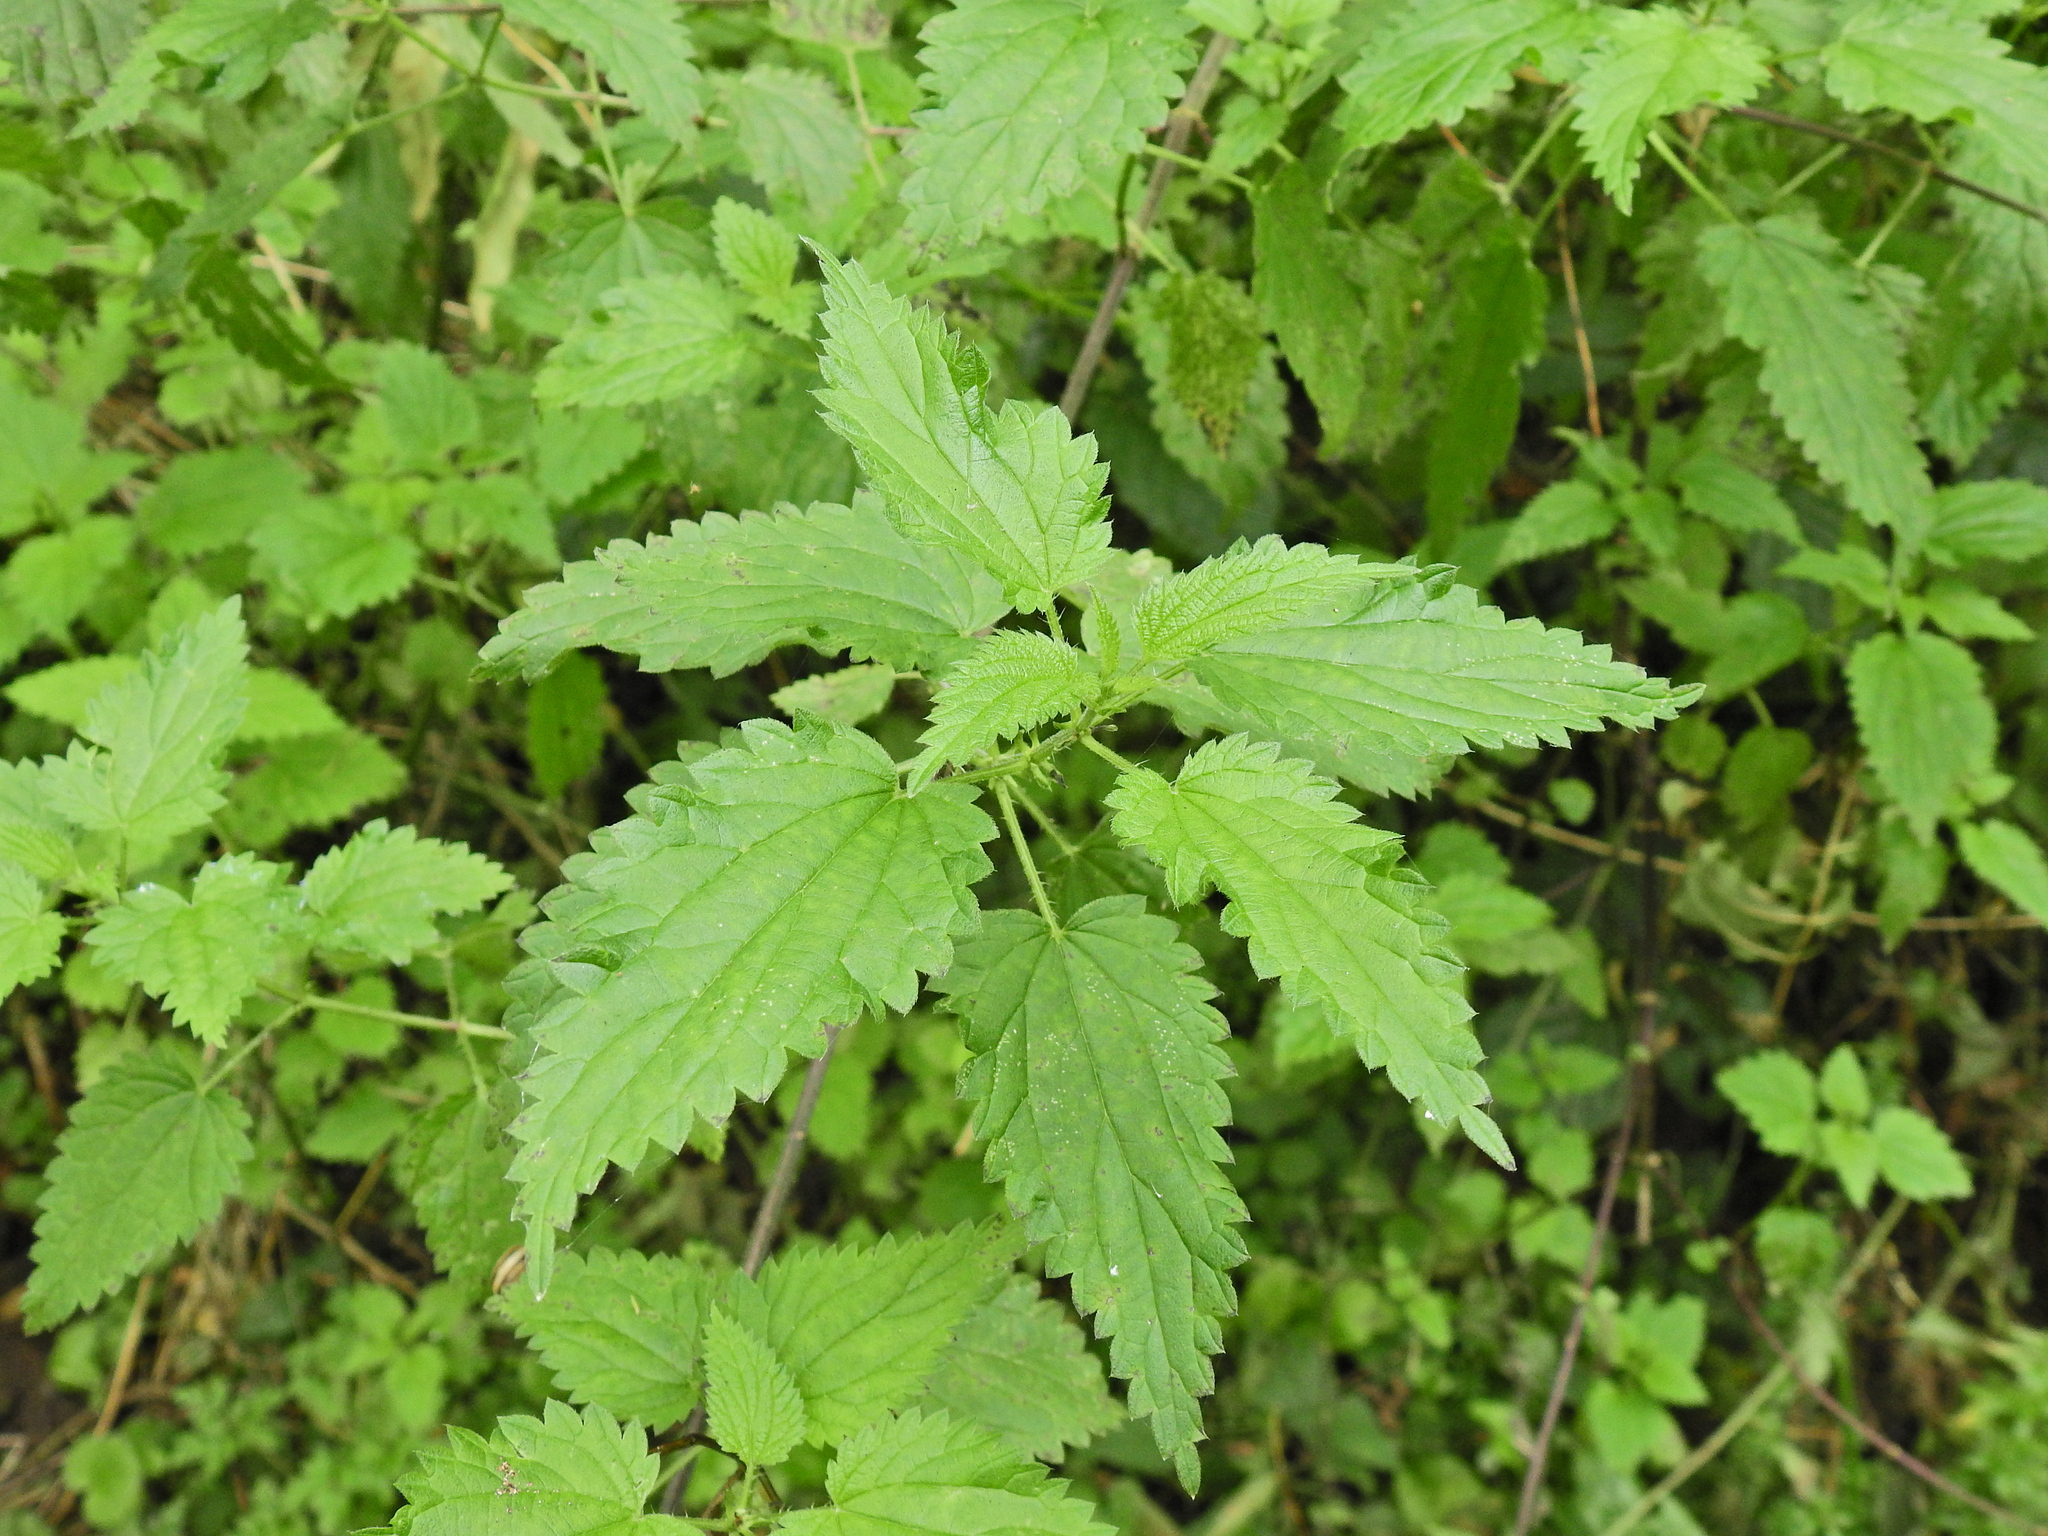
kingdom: Plantae
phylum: Tracheophyta
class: Magnoliopsida
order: Rosales
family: Urticaceae
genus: Urtica
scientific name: Urtica dioica
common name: Common nettle
